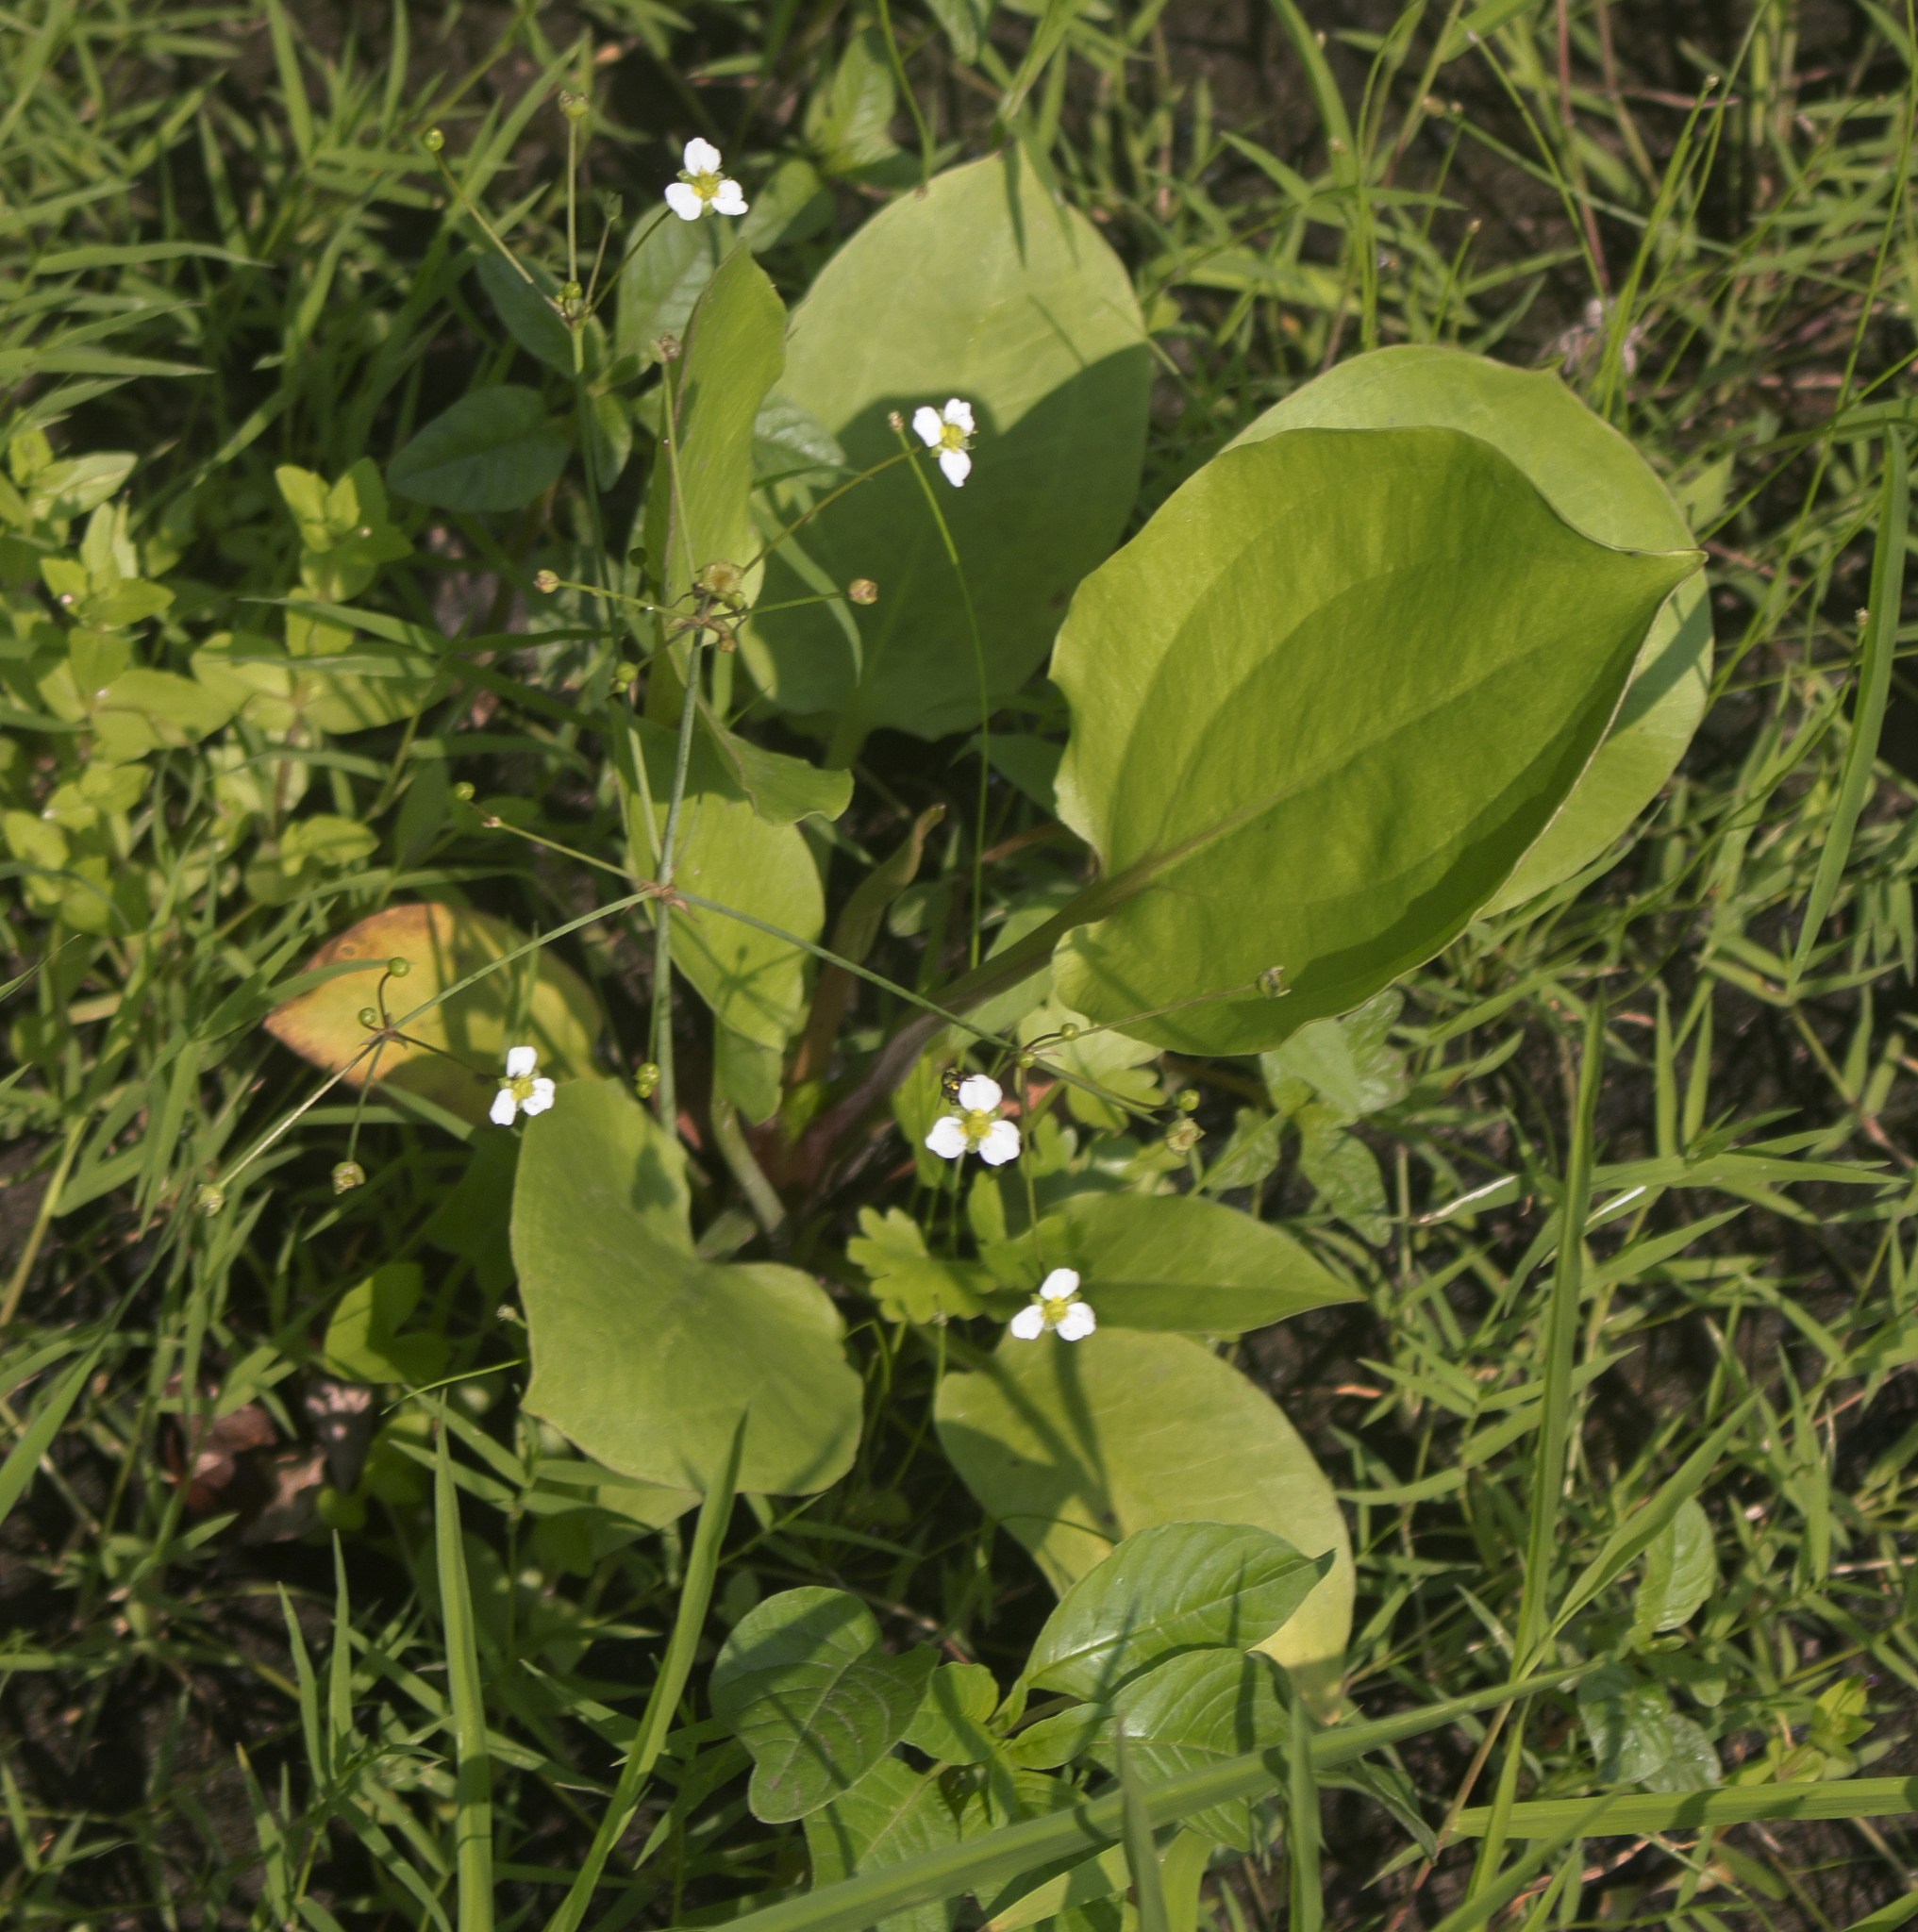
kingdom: Plantae
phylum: Tracheophyta
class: Liliopsida
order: Alismatales
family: Alismataceae
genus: Alisma
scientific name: Alisma triviale
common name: Northern water-plantain
